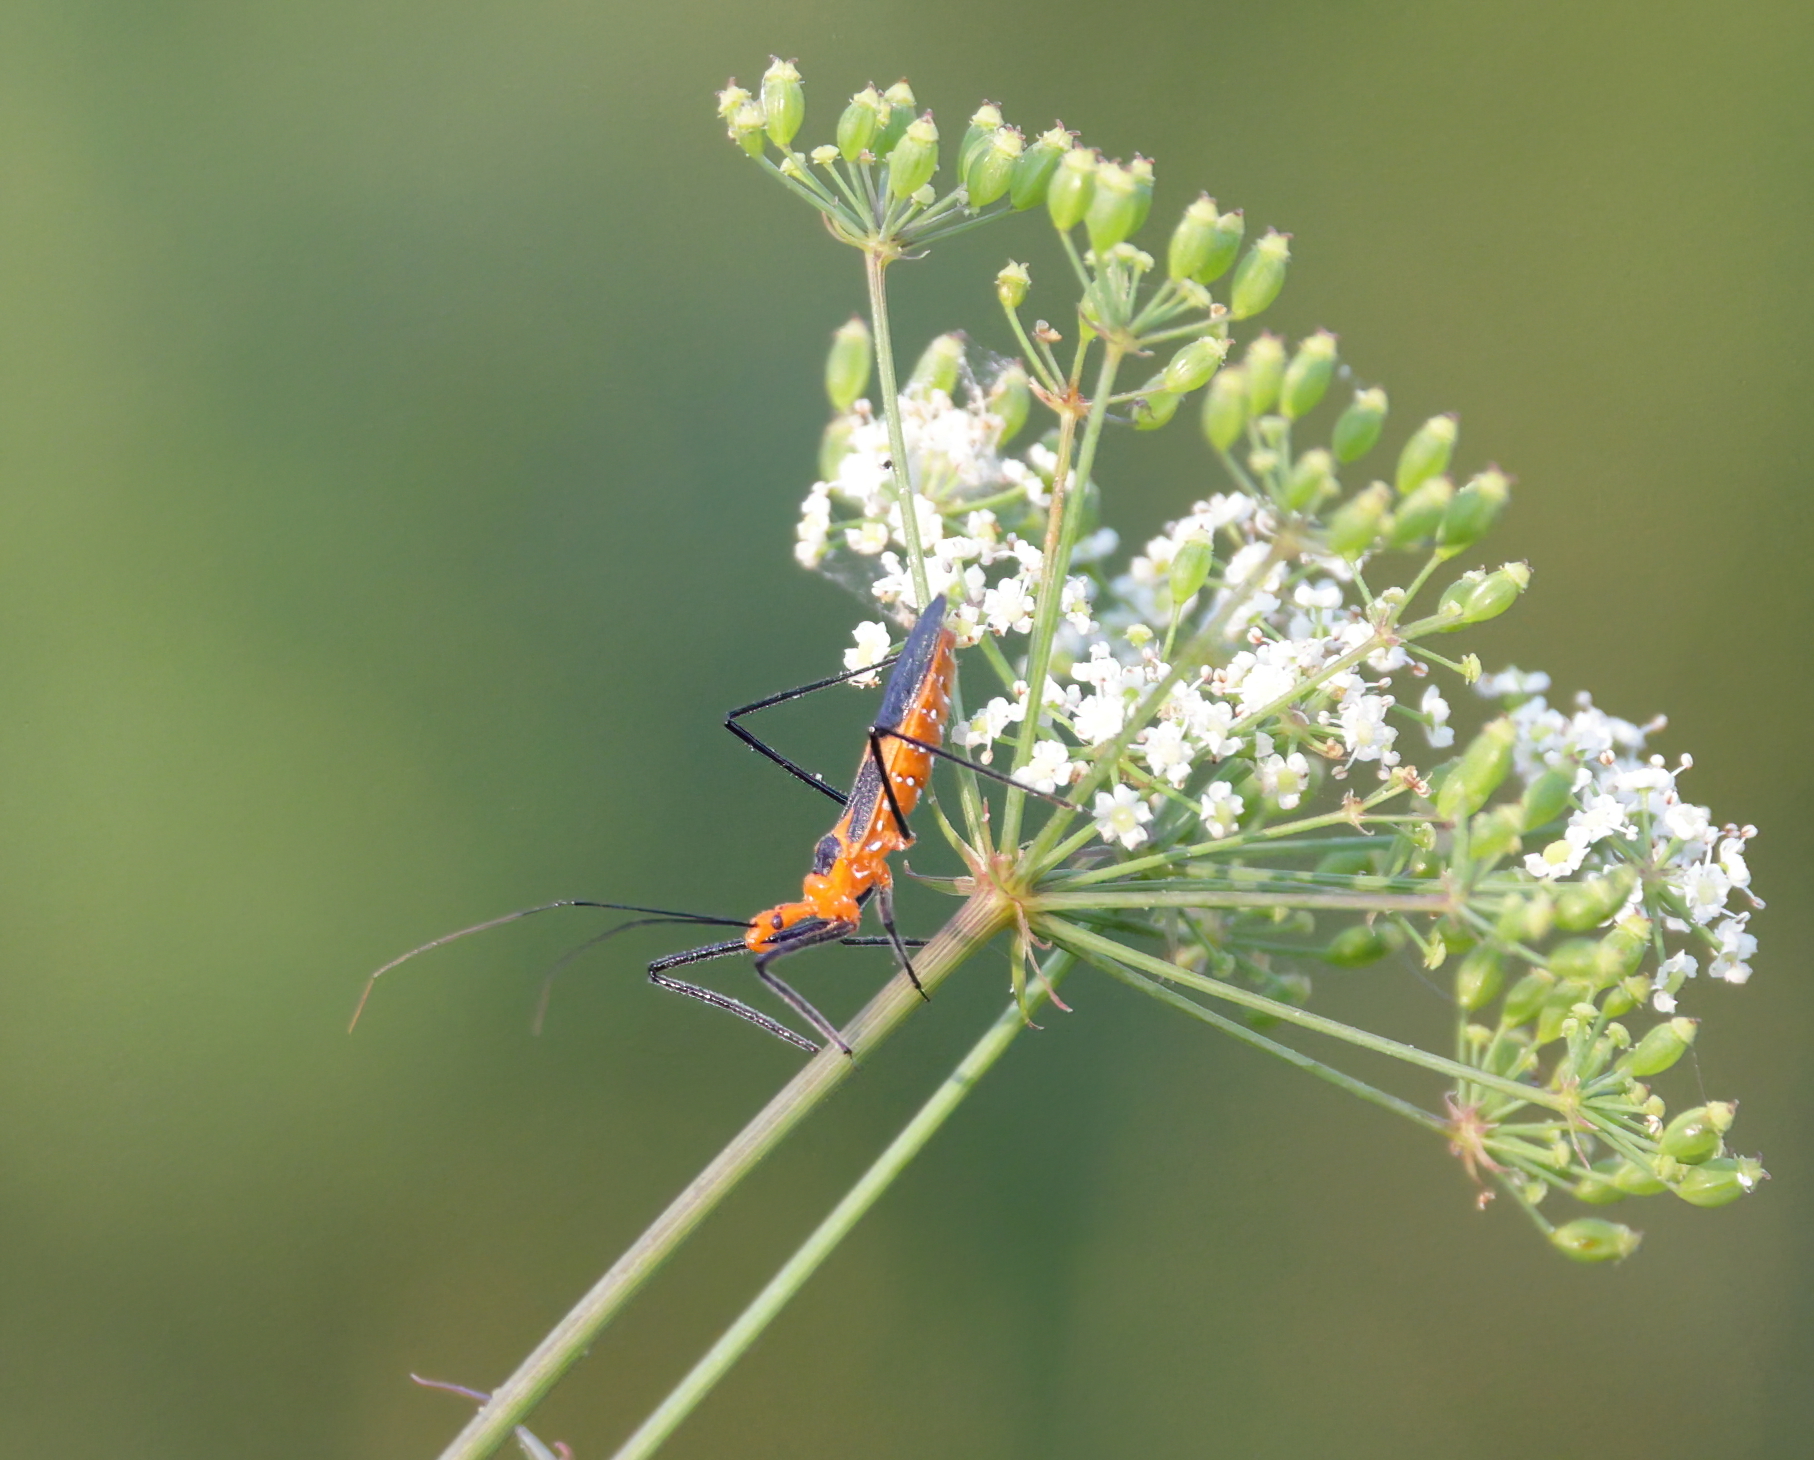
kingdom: Animalia
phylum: Arthropoda
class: Insecta
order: Hemiptera
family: Reduviidae
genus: Zelus
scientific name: Zelus longipes
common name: Milkweed assassin bug
